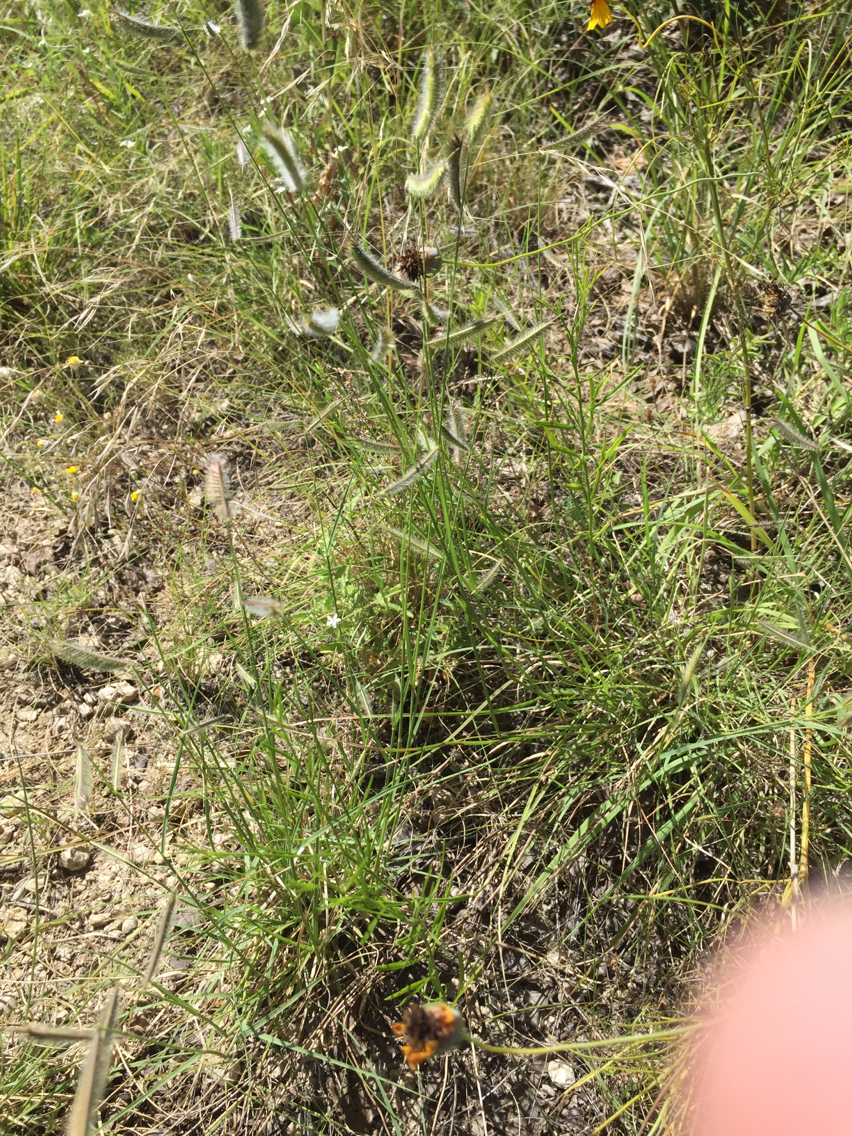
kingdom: Plantae
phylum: Tracheophyta
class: Liliopsida
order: Poales
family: Poaceae
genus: Bouteloua
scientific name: Bouteloua hirsuta
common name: Hairy grama
